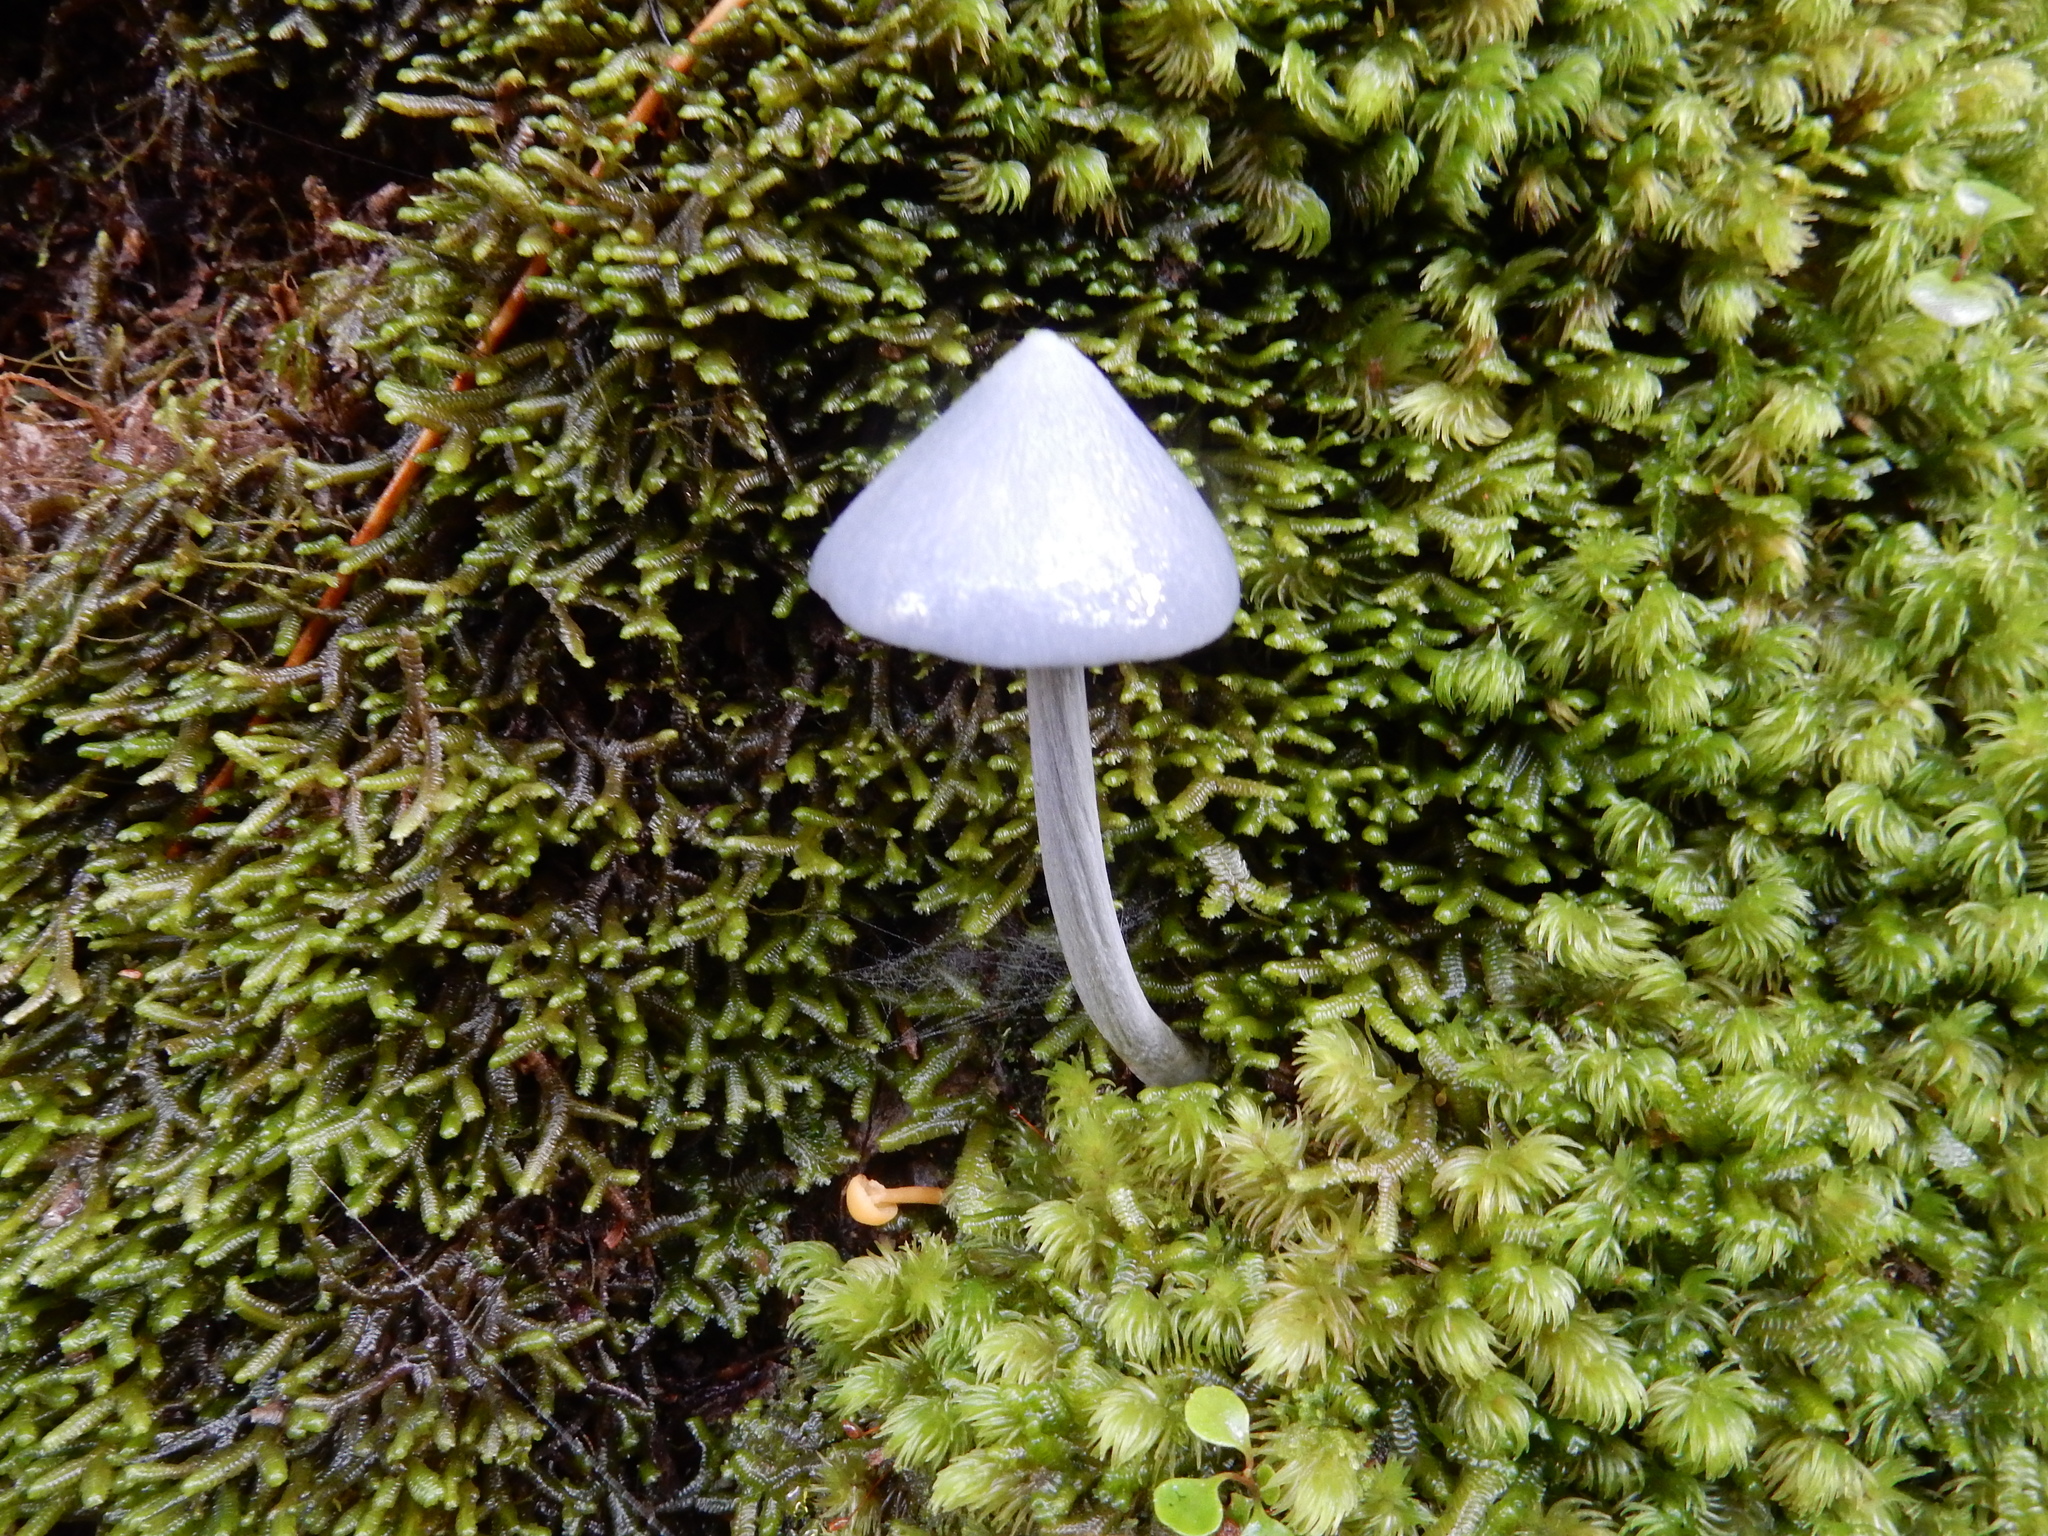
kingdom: Fungi
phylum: Basidiomycota
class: Agaricomycetes
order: Agaricales
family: Entolomataceae
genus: Entoloma
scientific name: Entoloma canoconicum
